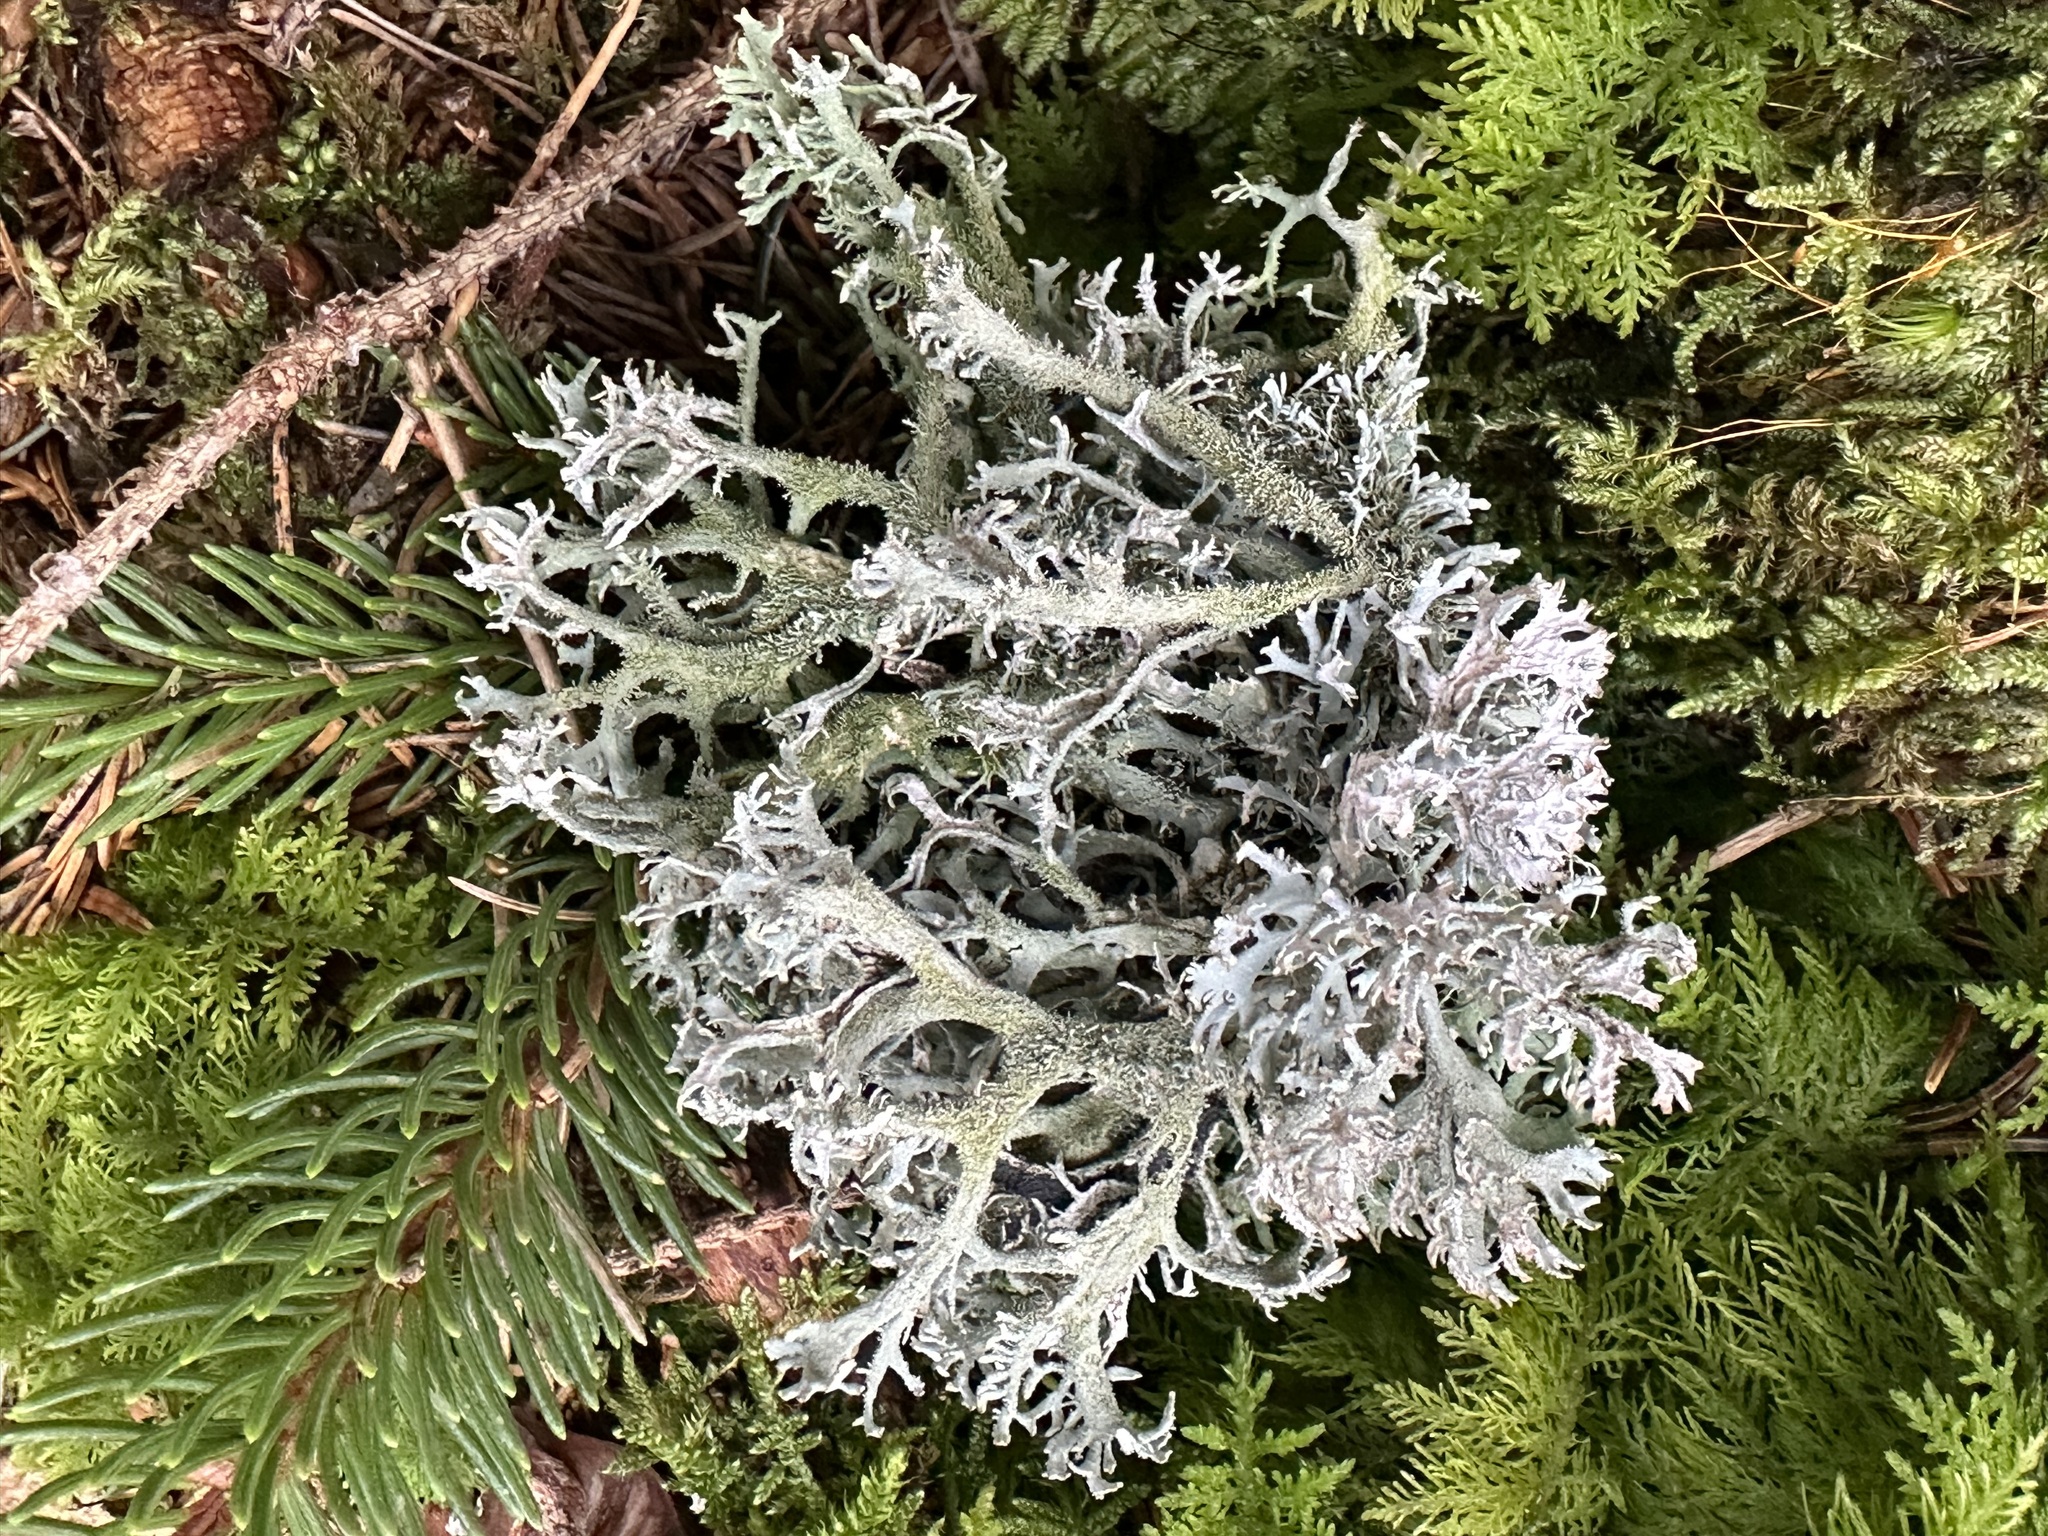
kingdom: Fungi
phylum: Ascomycota
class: Lecanoromycetes
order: Lecanorales
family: Parmeliaceae
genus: Pseudevernia
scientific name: Pseudevernia furfuracea
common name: Tree moss
